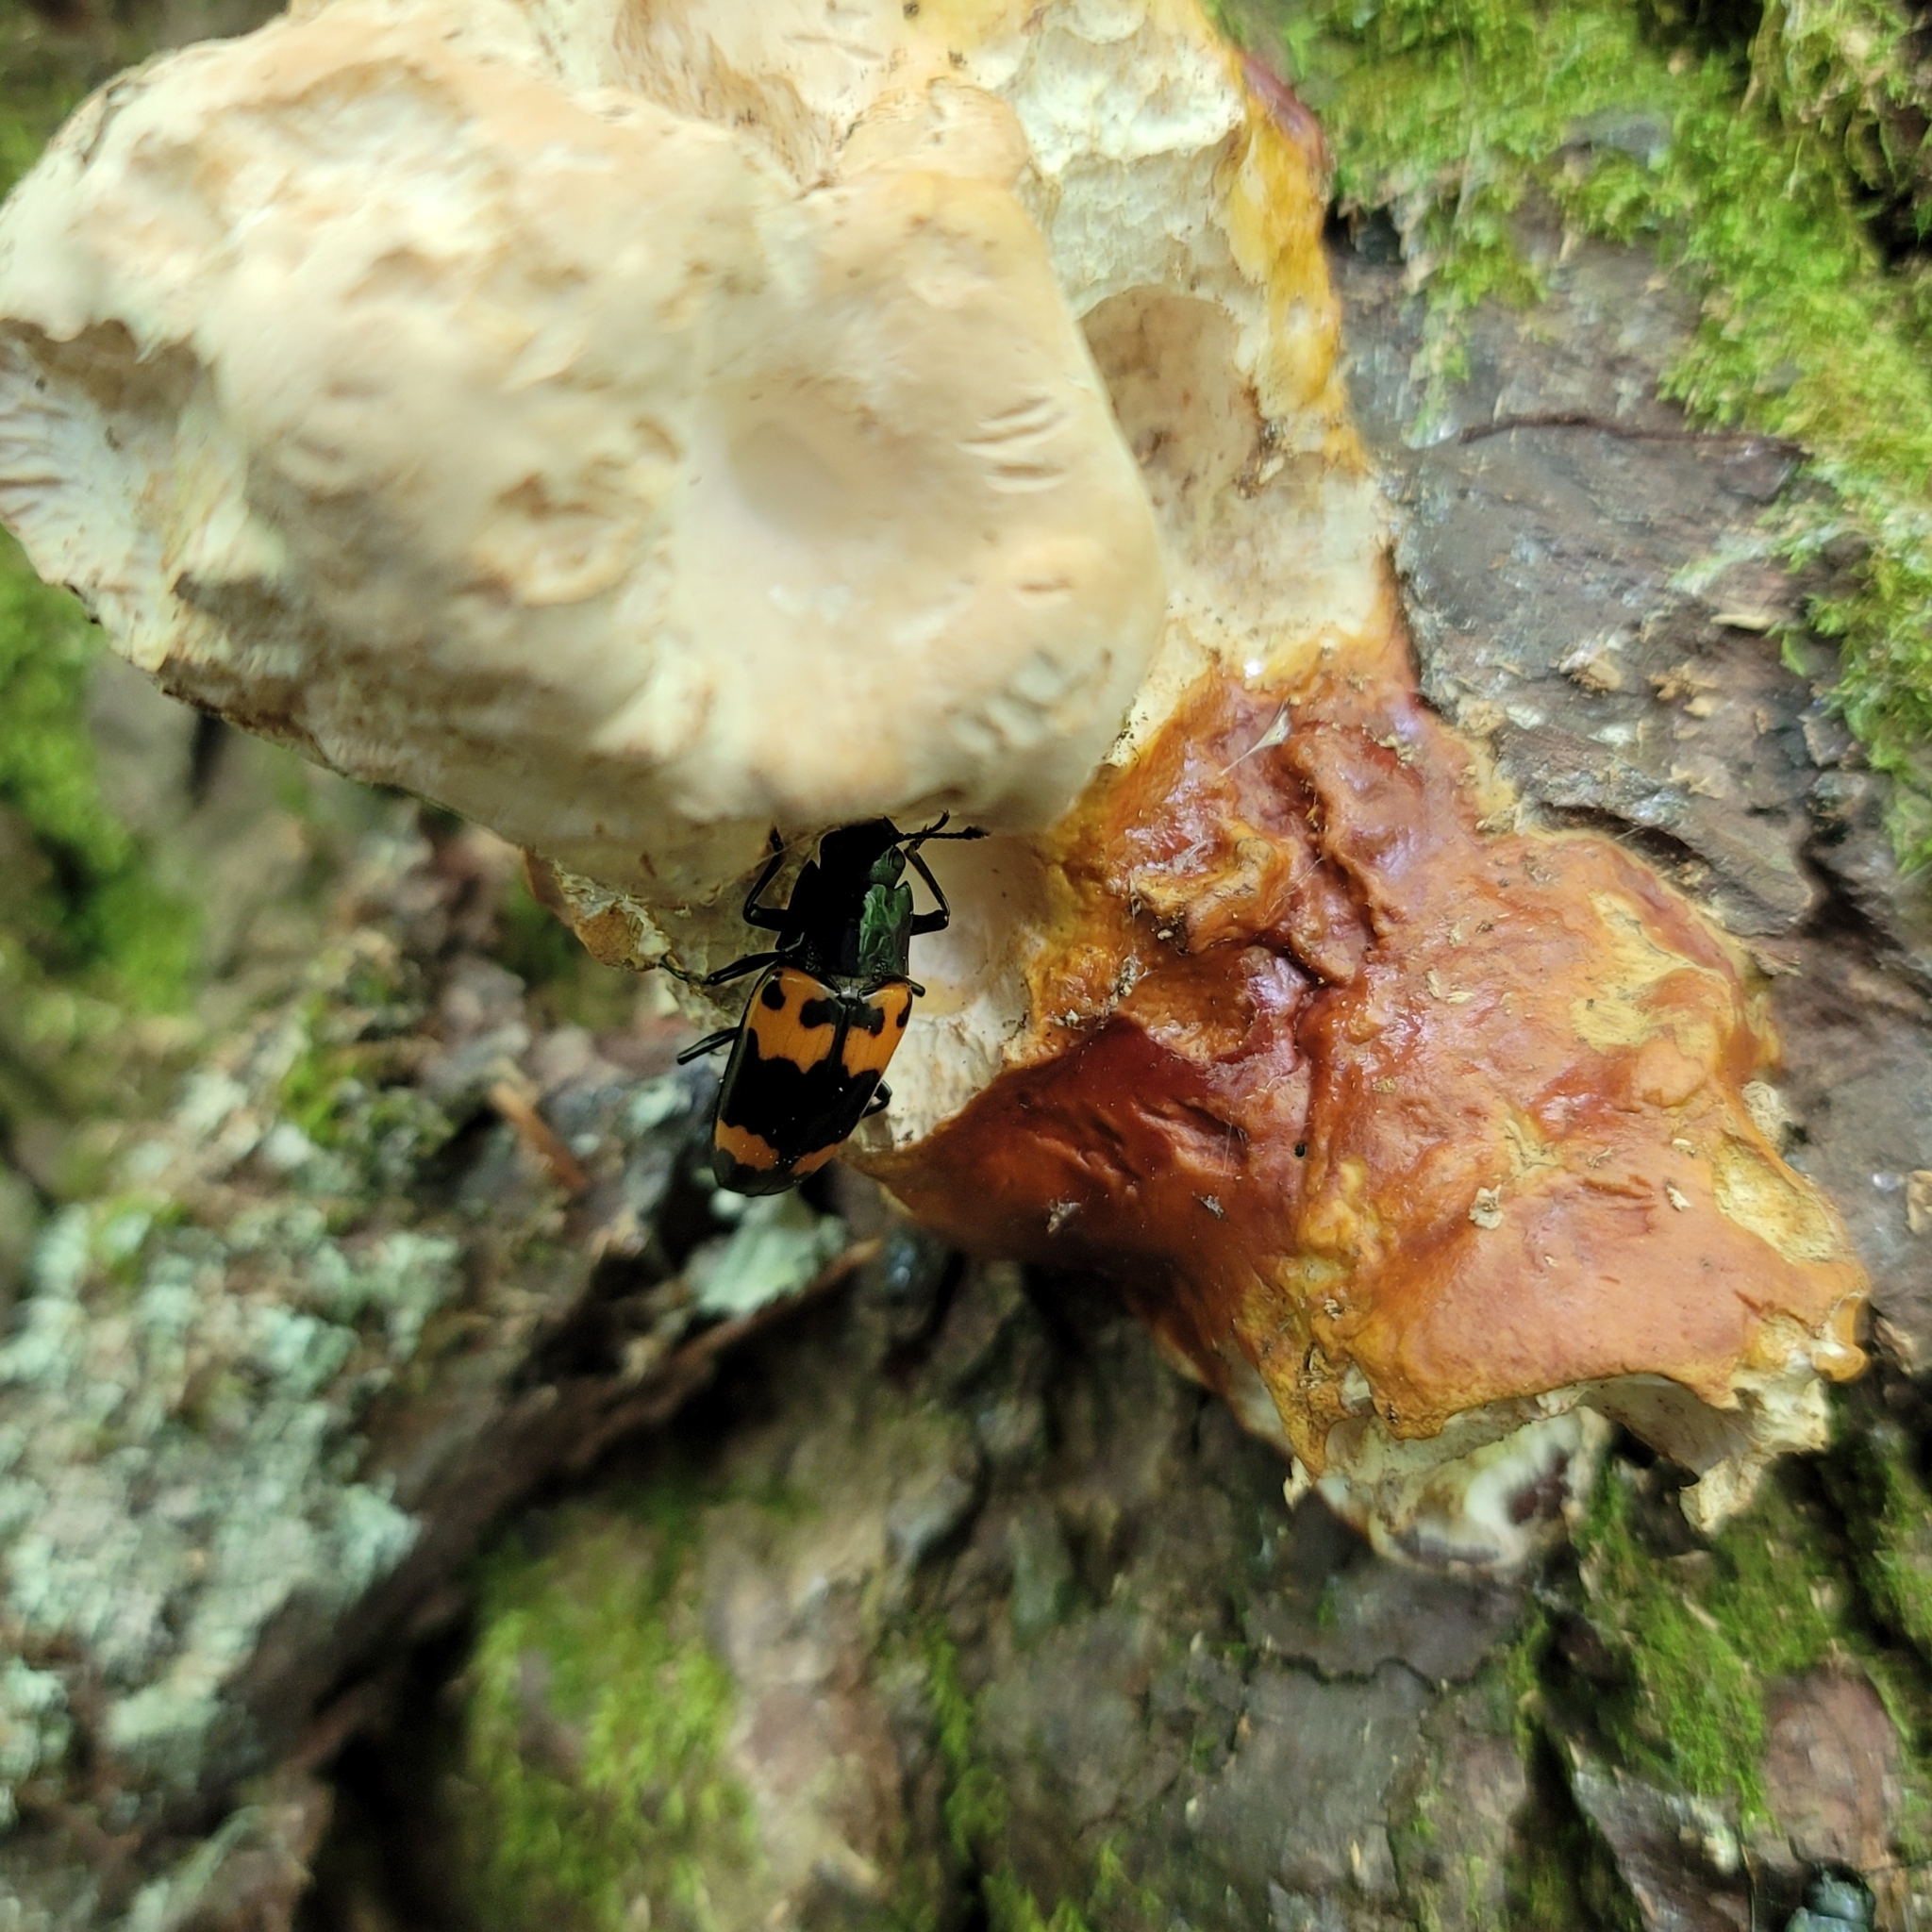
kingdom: Animalia
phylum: Arthropoda
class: Insecta
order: Coleoptera
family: Erotylidae
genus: Megalodacne
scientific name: Megalodacne heros
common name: Pleasing fungus beetle
